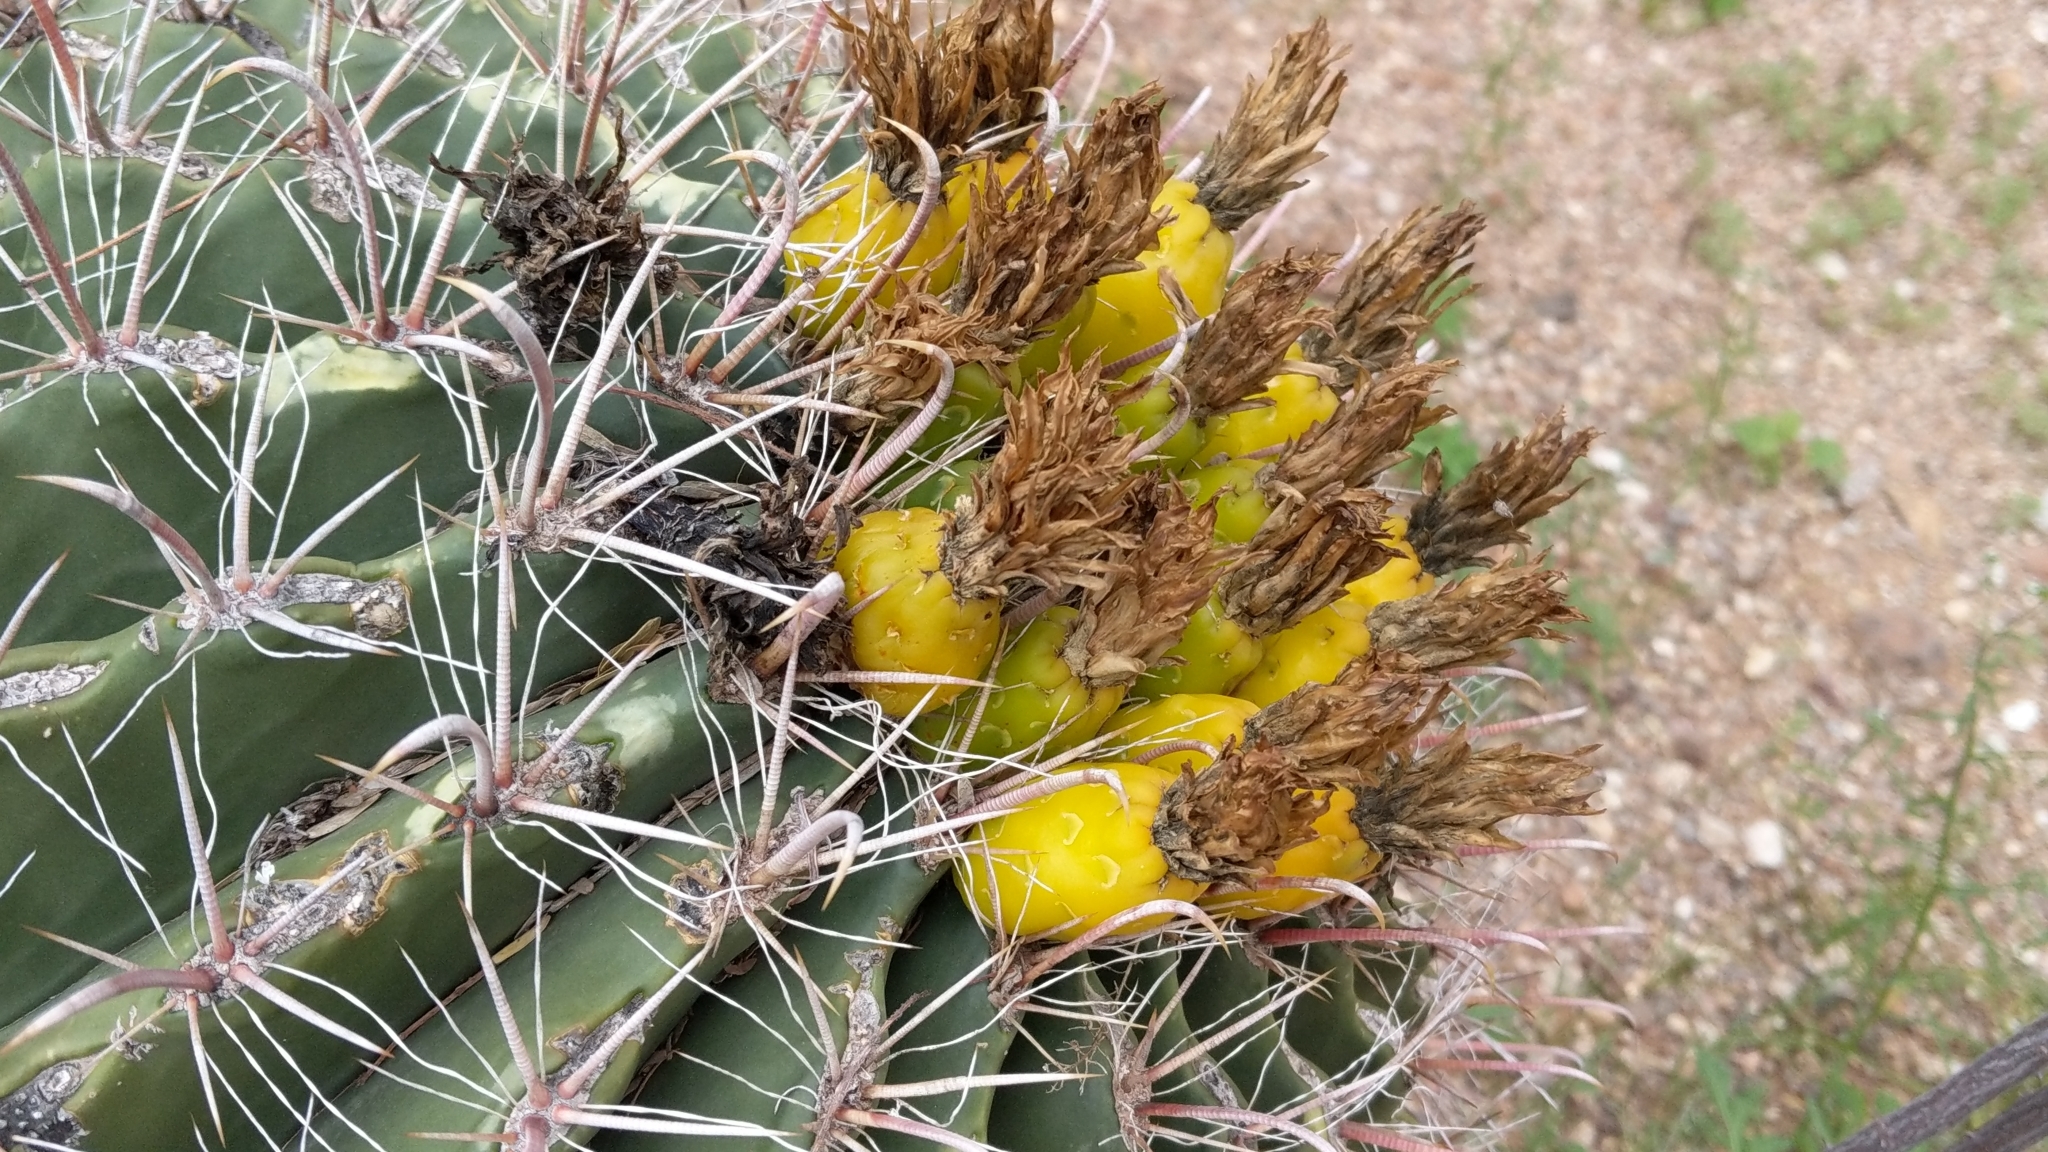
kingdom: Plantae
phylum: Tracheophyta
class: Magnoliopsida
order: Caryophyllales
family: Cactaceae
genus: Ferocactus
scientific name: Ferocactus wislizeni
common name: Candy barrel cactus
